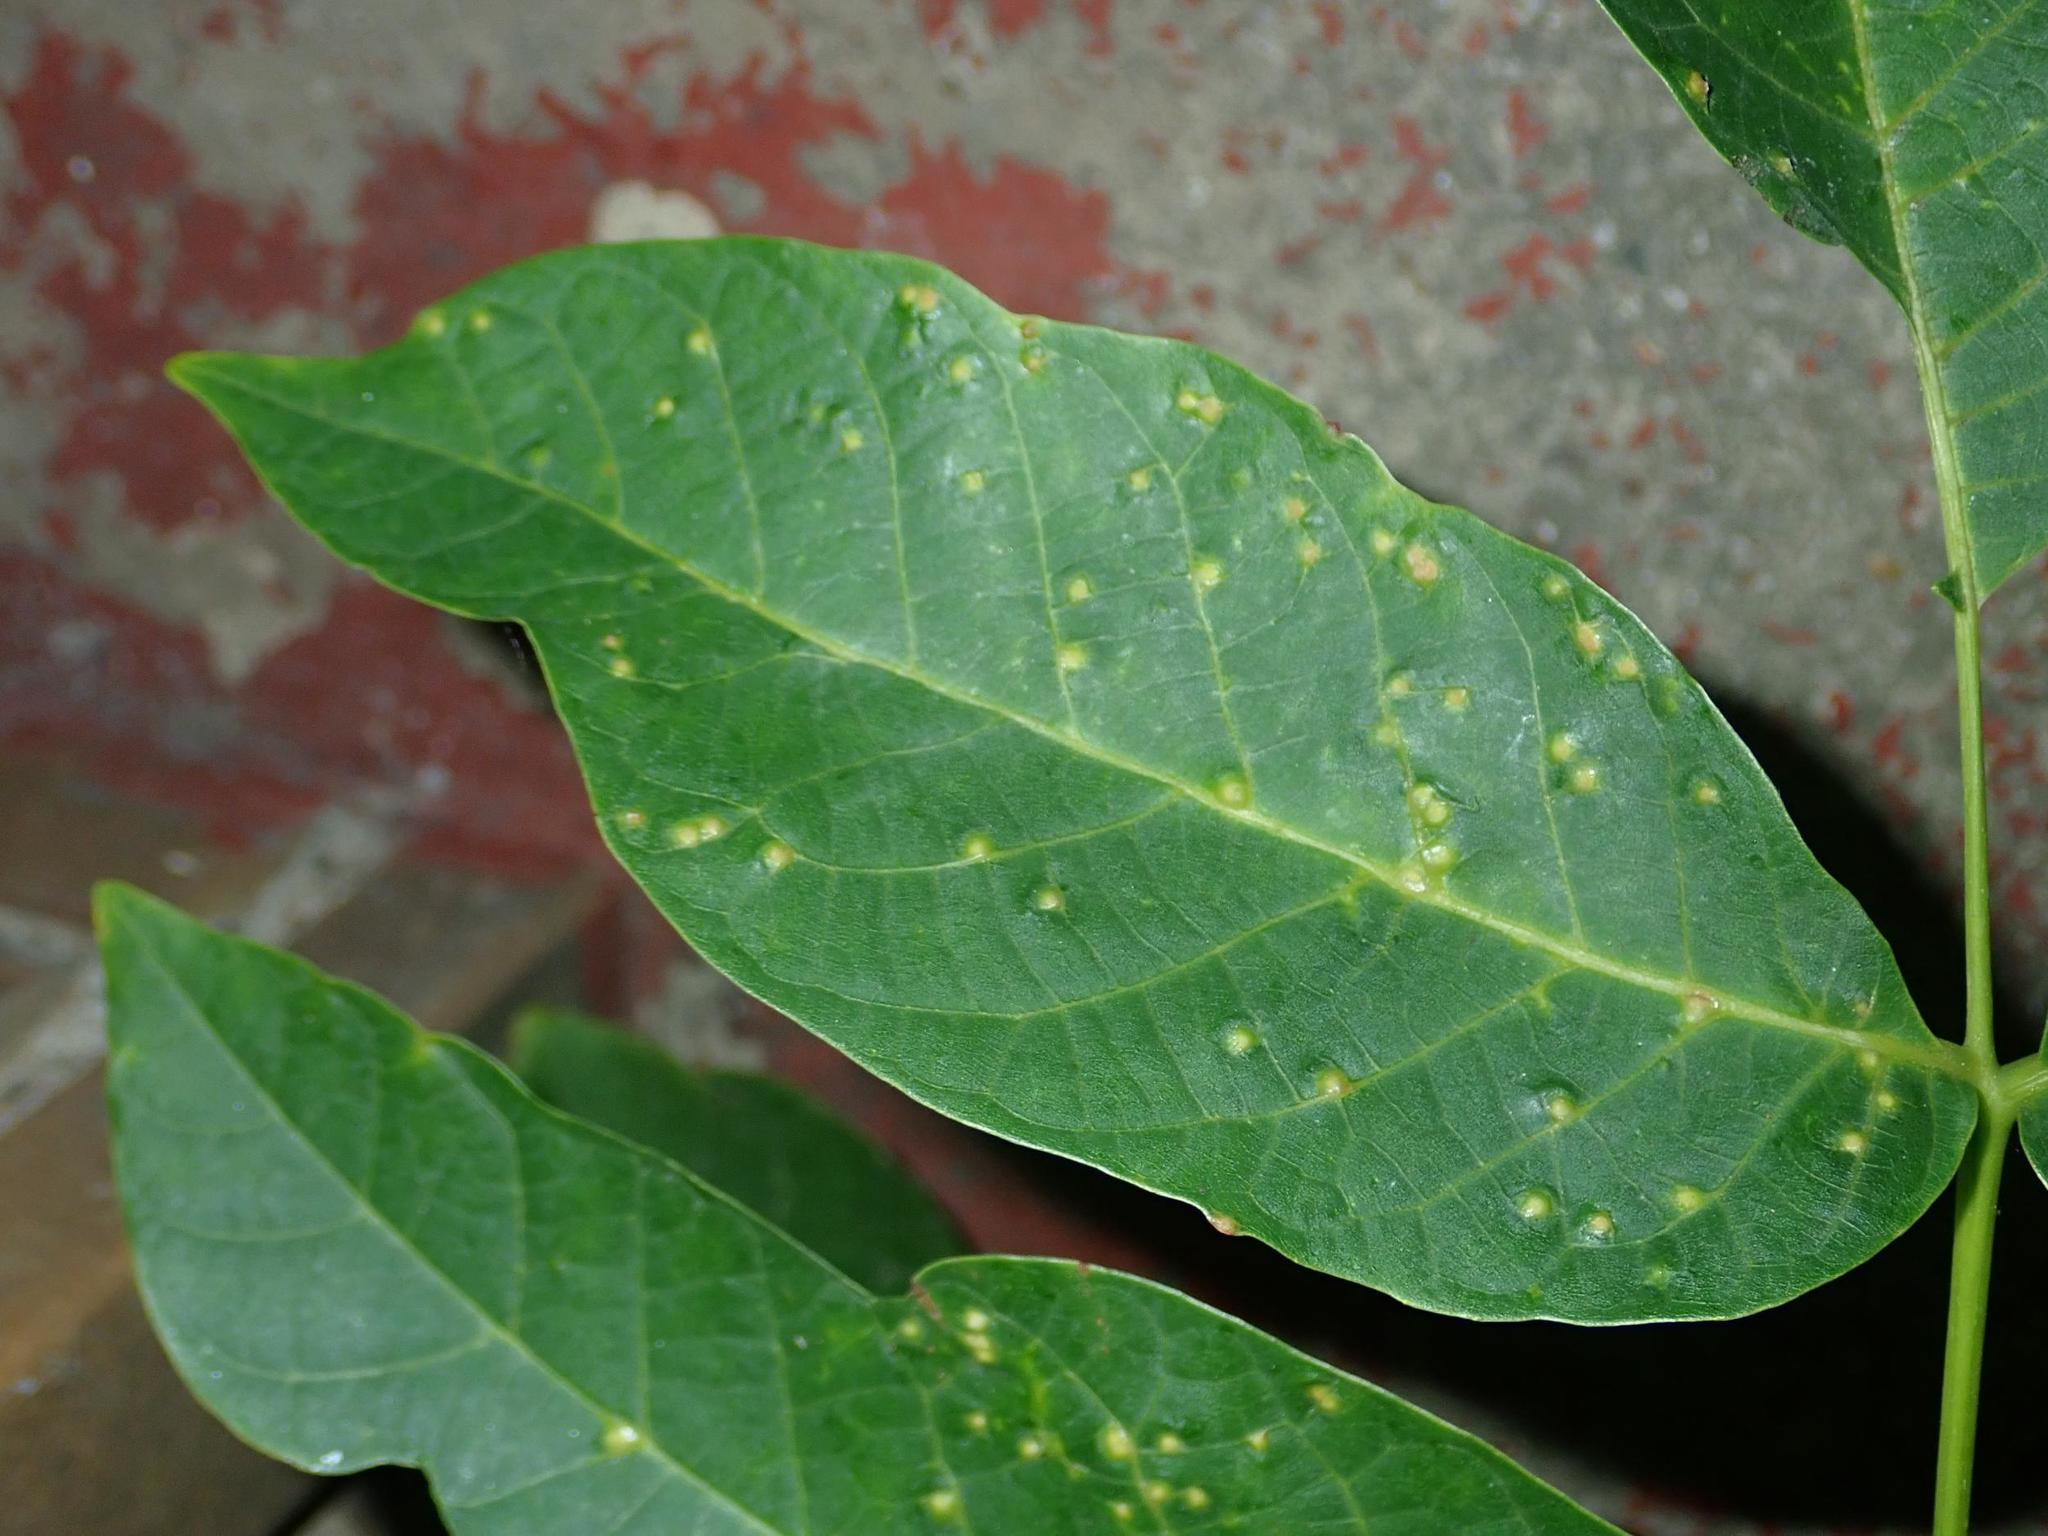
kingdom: Animalia
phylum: Arthropoda
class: Arachnida
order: Trombidiformes
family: Eriophyidae
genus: Aceria
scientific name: Aceria tristriata
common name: Persian walnut leaf blister mite
